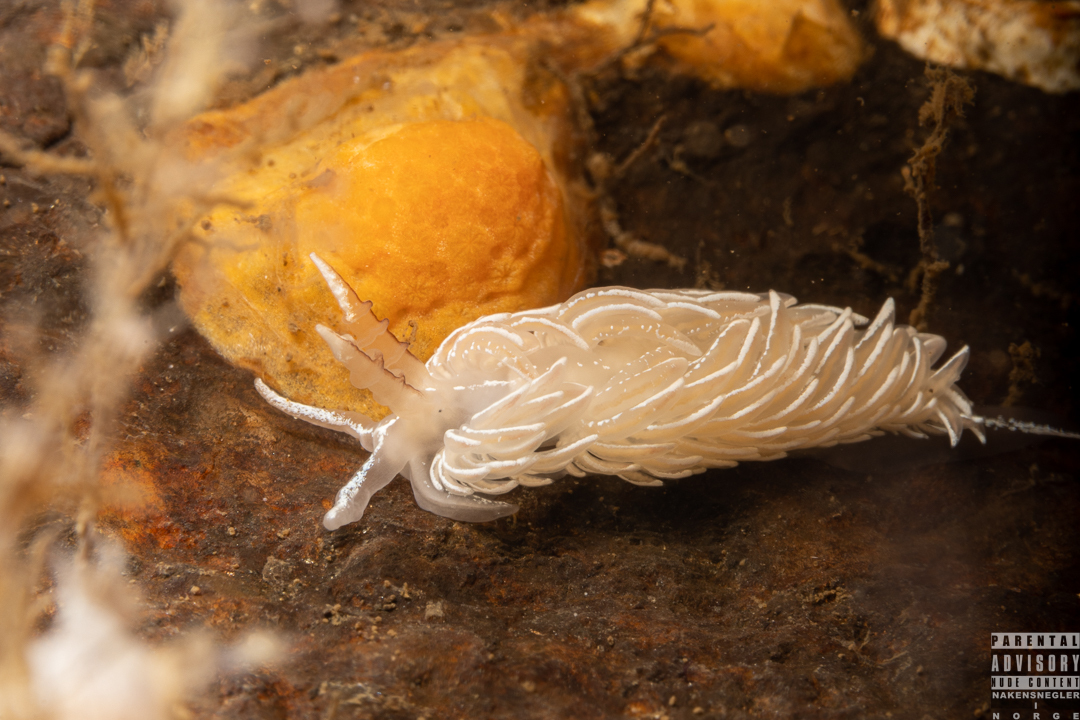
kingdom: Animalia
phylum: Mollusca
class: Gastropoda
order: Nudibranchia
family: Facelinidae
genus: Favorinus
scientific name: Favorinus blianus
